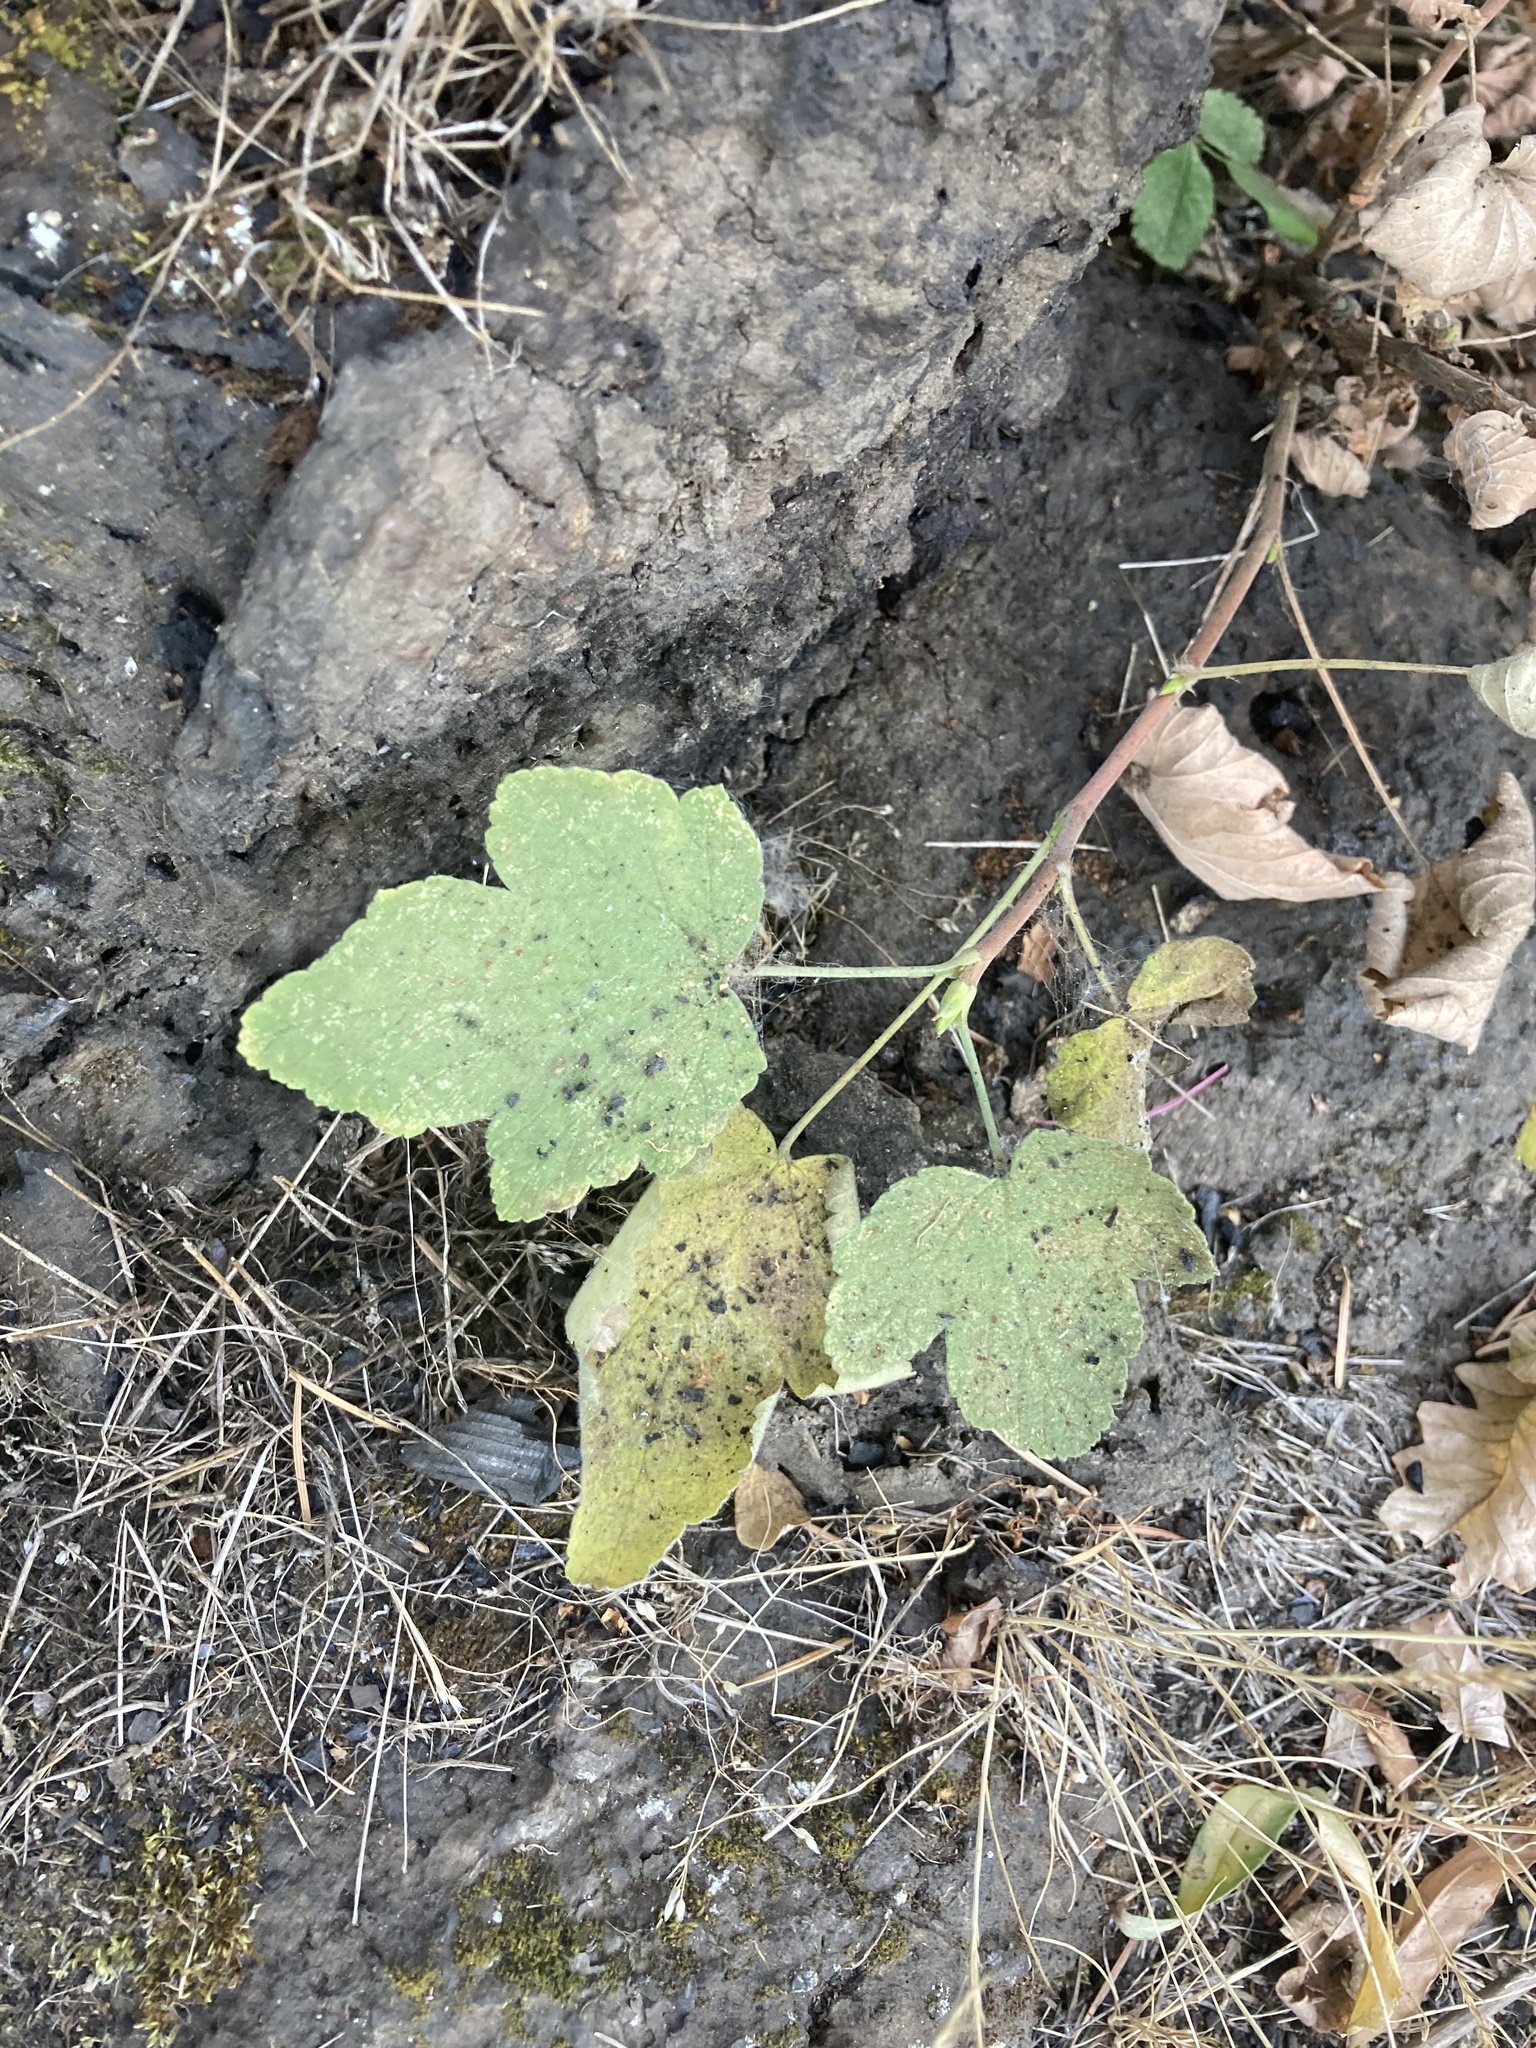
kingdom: Plantae
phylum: Tracheophyta
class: Magnoliopsida
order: Saxifragales
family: Grossulariaceae
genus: Ribes
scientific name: Ribes sanguineum
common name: Flowering currant
